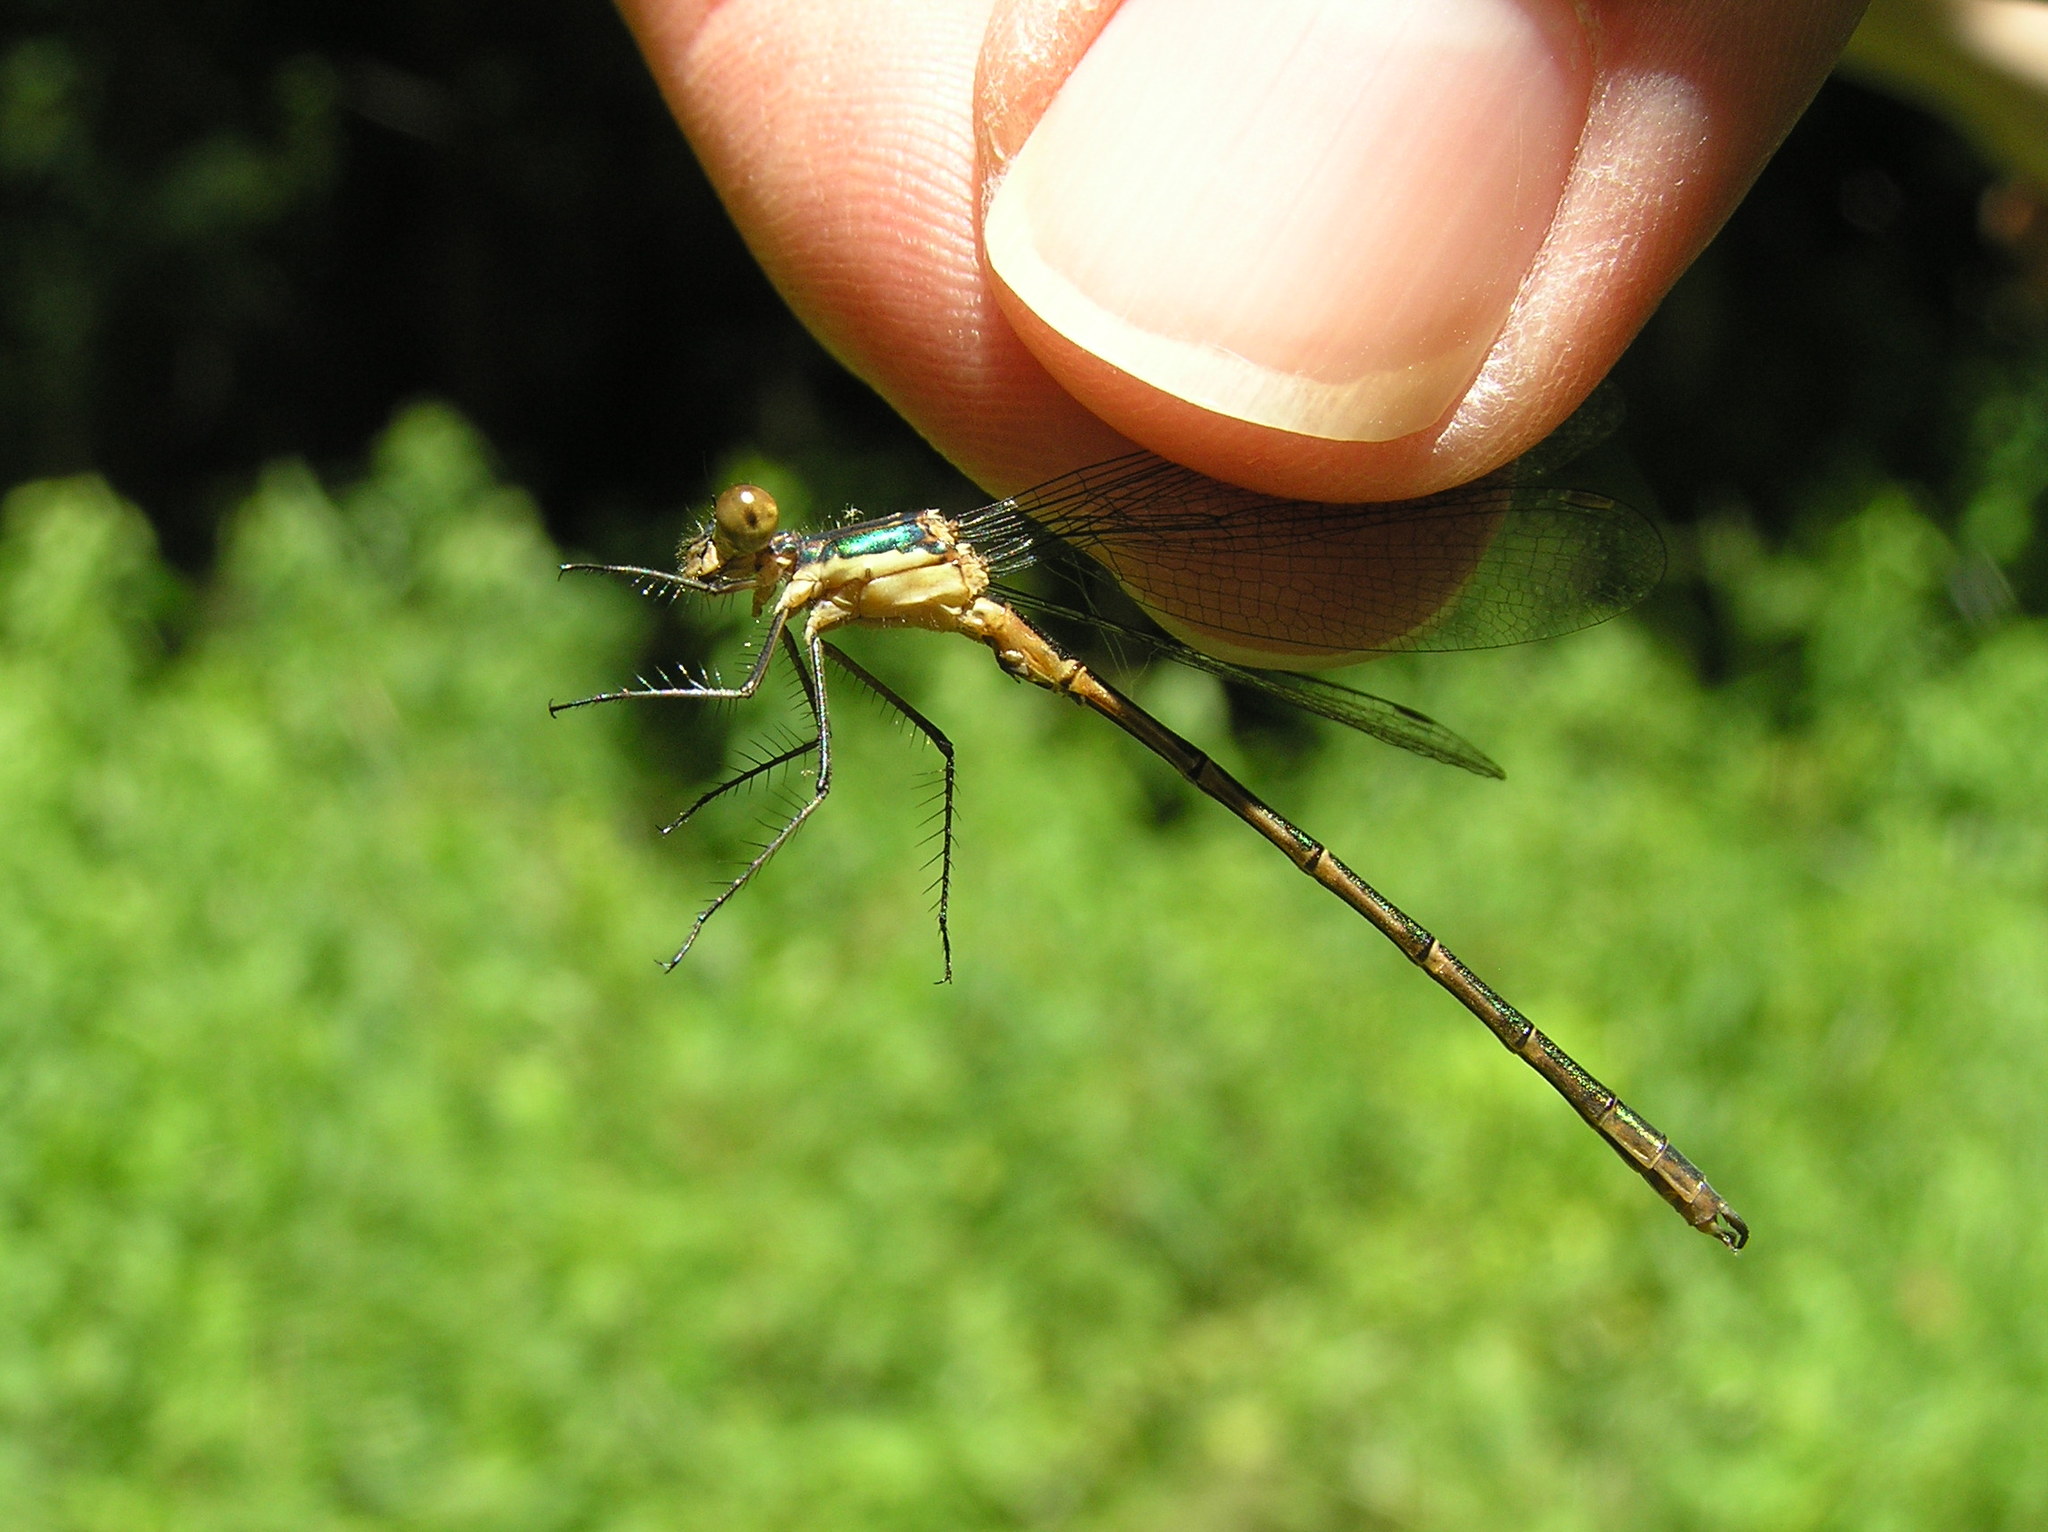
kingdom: Animalia
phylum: Arthropoda
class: Insecta
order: Odonata
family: Lestidae
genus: Lestes
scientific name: Lestes dryas
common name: Scarce emerald damselfly
